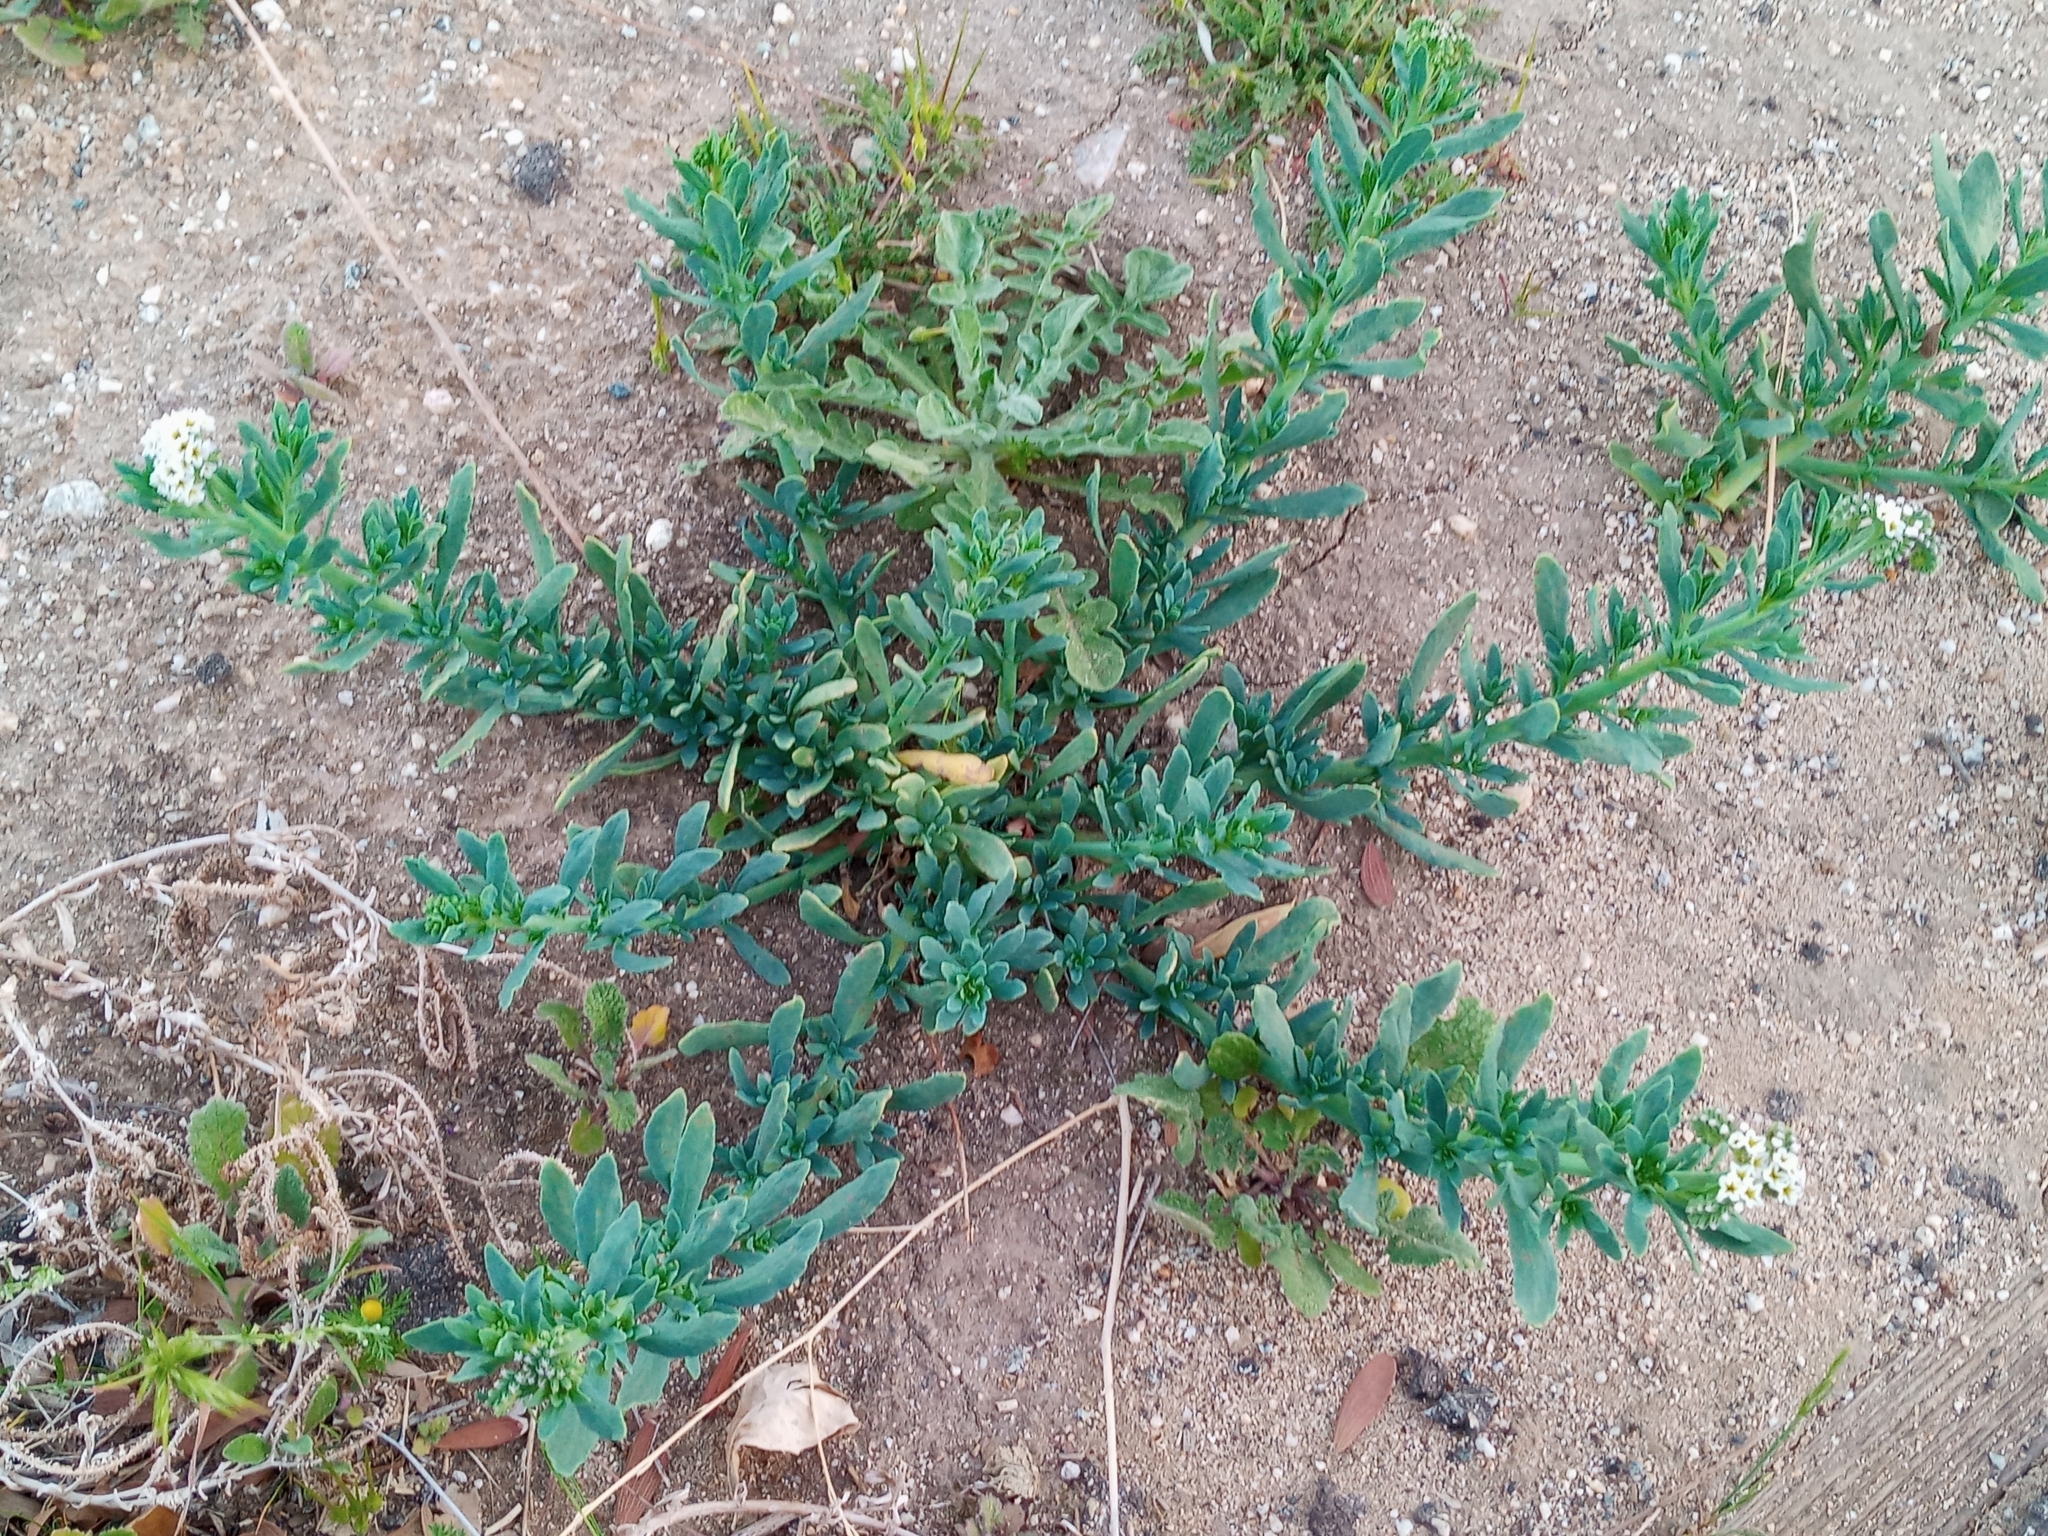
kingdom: Plantae
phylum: Tracheophyta
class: Magnoliopsida
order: Boraginales
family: Heliotropiaceae
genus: Heliotropium
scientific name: Heliotropium curassavicum
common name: Seaside heliotrope
